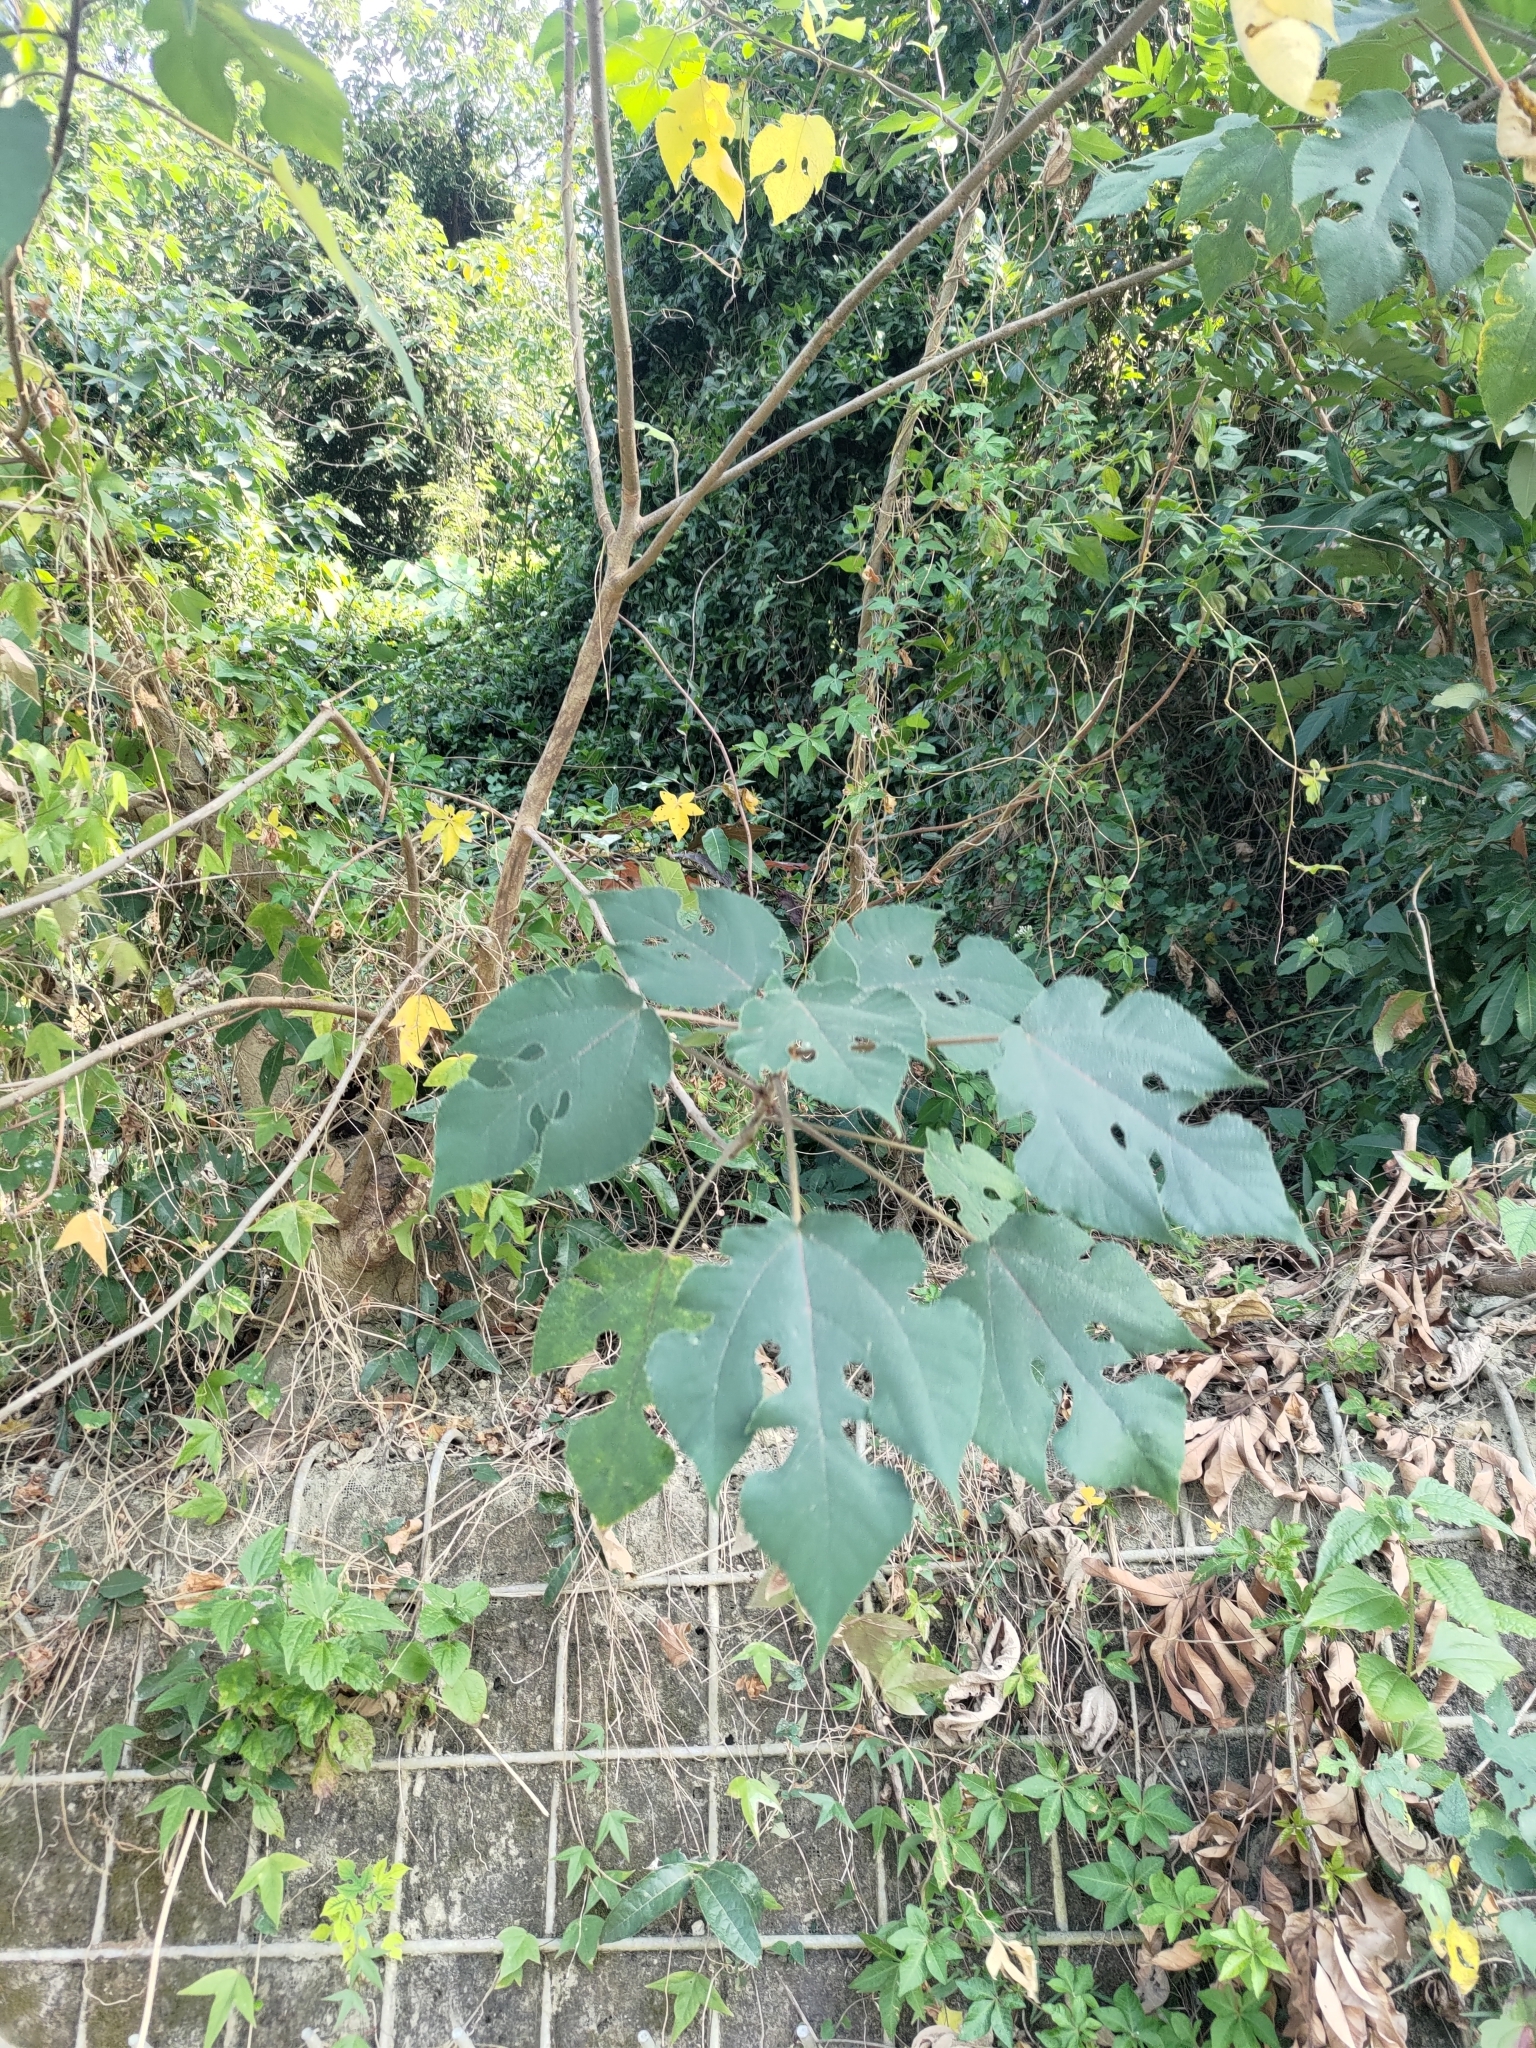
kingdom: Plantae
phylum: Tracheophyta
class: Magnoliopsida
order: Rosales
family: Moraceae
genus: Broussonetia
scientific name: Broussonetia papyrifera
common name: Paper mulberry
